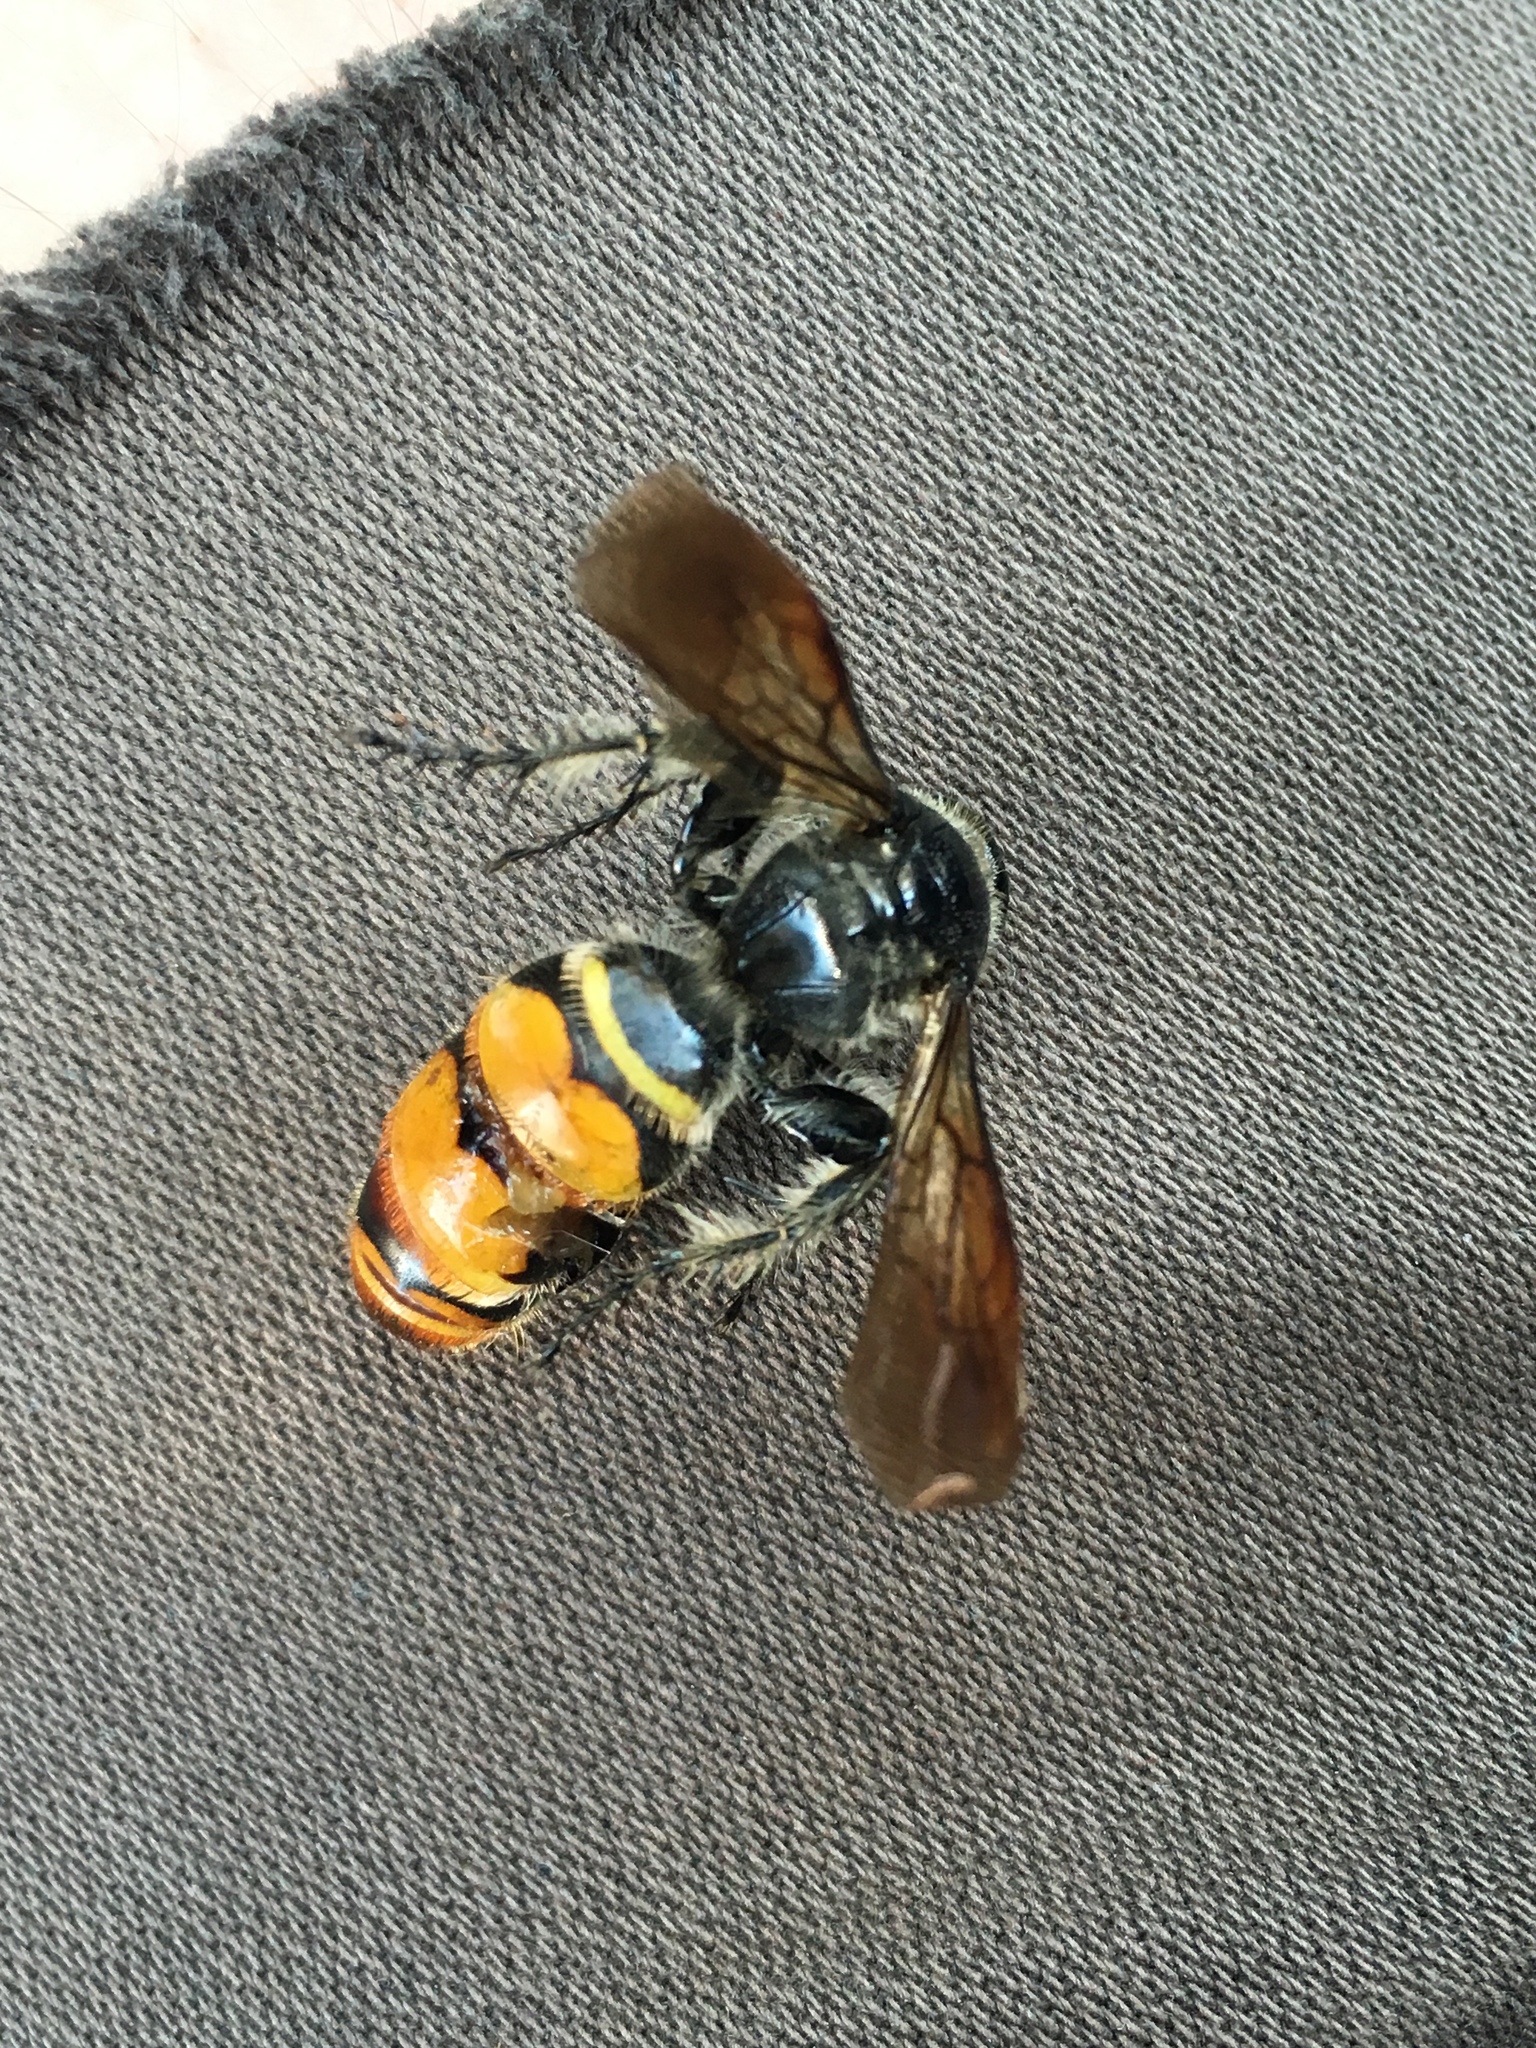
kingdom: Animalia
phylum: Arthropoda
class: Insecta
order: Hymenoptera
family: Scoliidae
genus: Dielis
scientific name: Dielis tolteca
